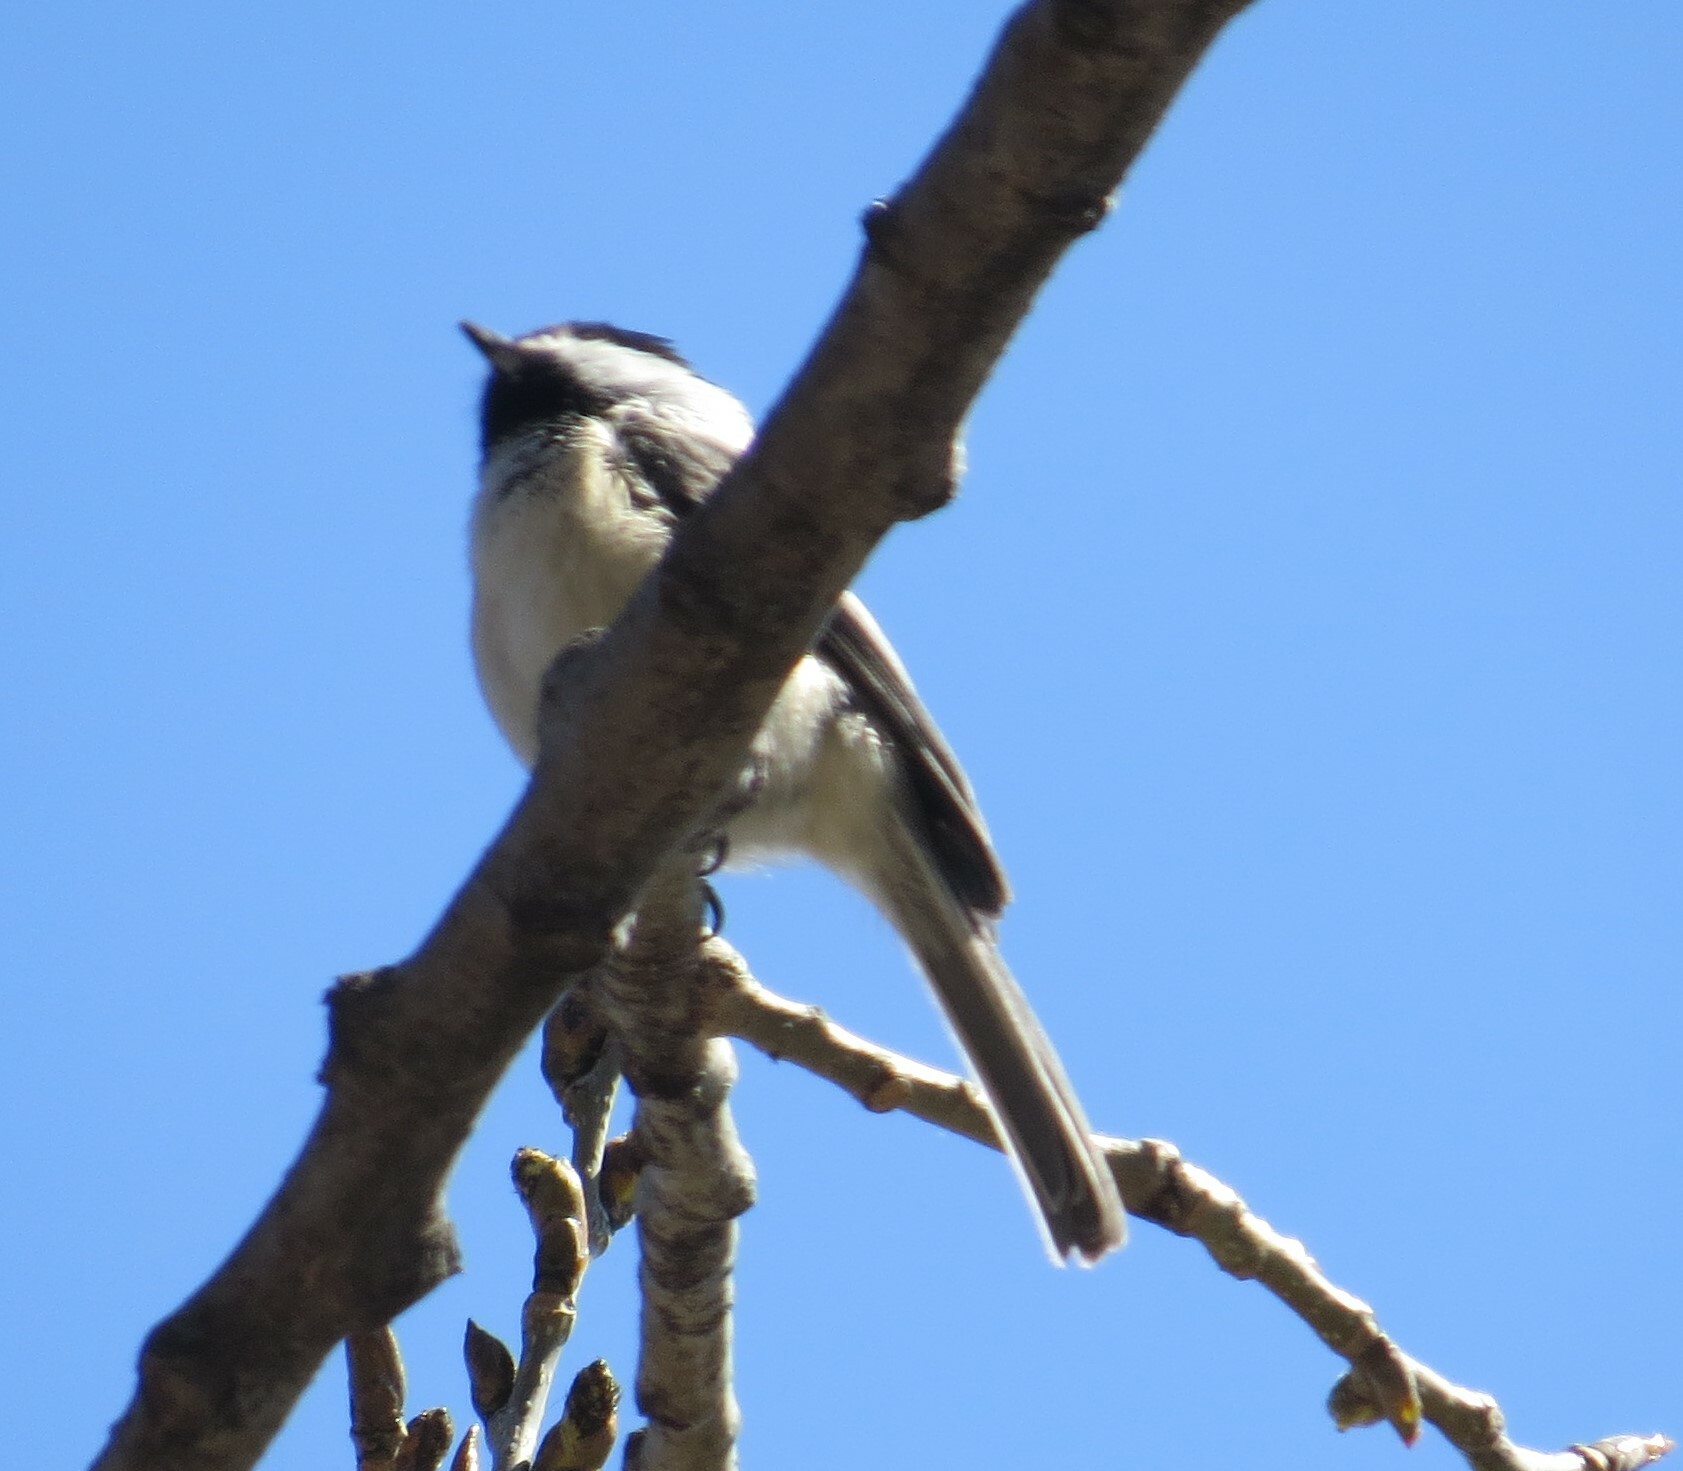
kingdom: Animalia
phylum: Chordata
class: Aves
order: Passeriformes
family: Paridae
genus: Poecile
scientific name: Poecile atricapillus
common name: Black-capped chickadee
